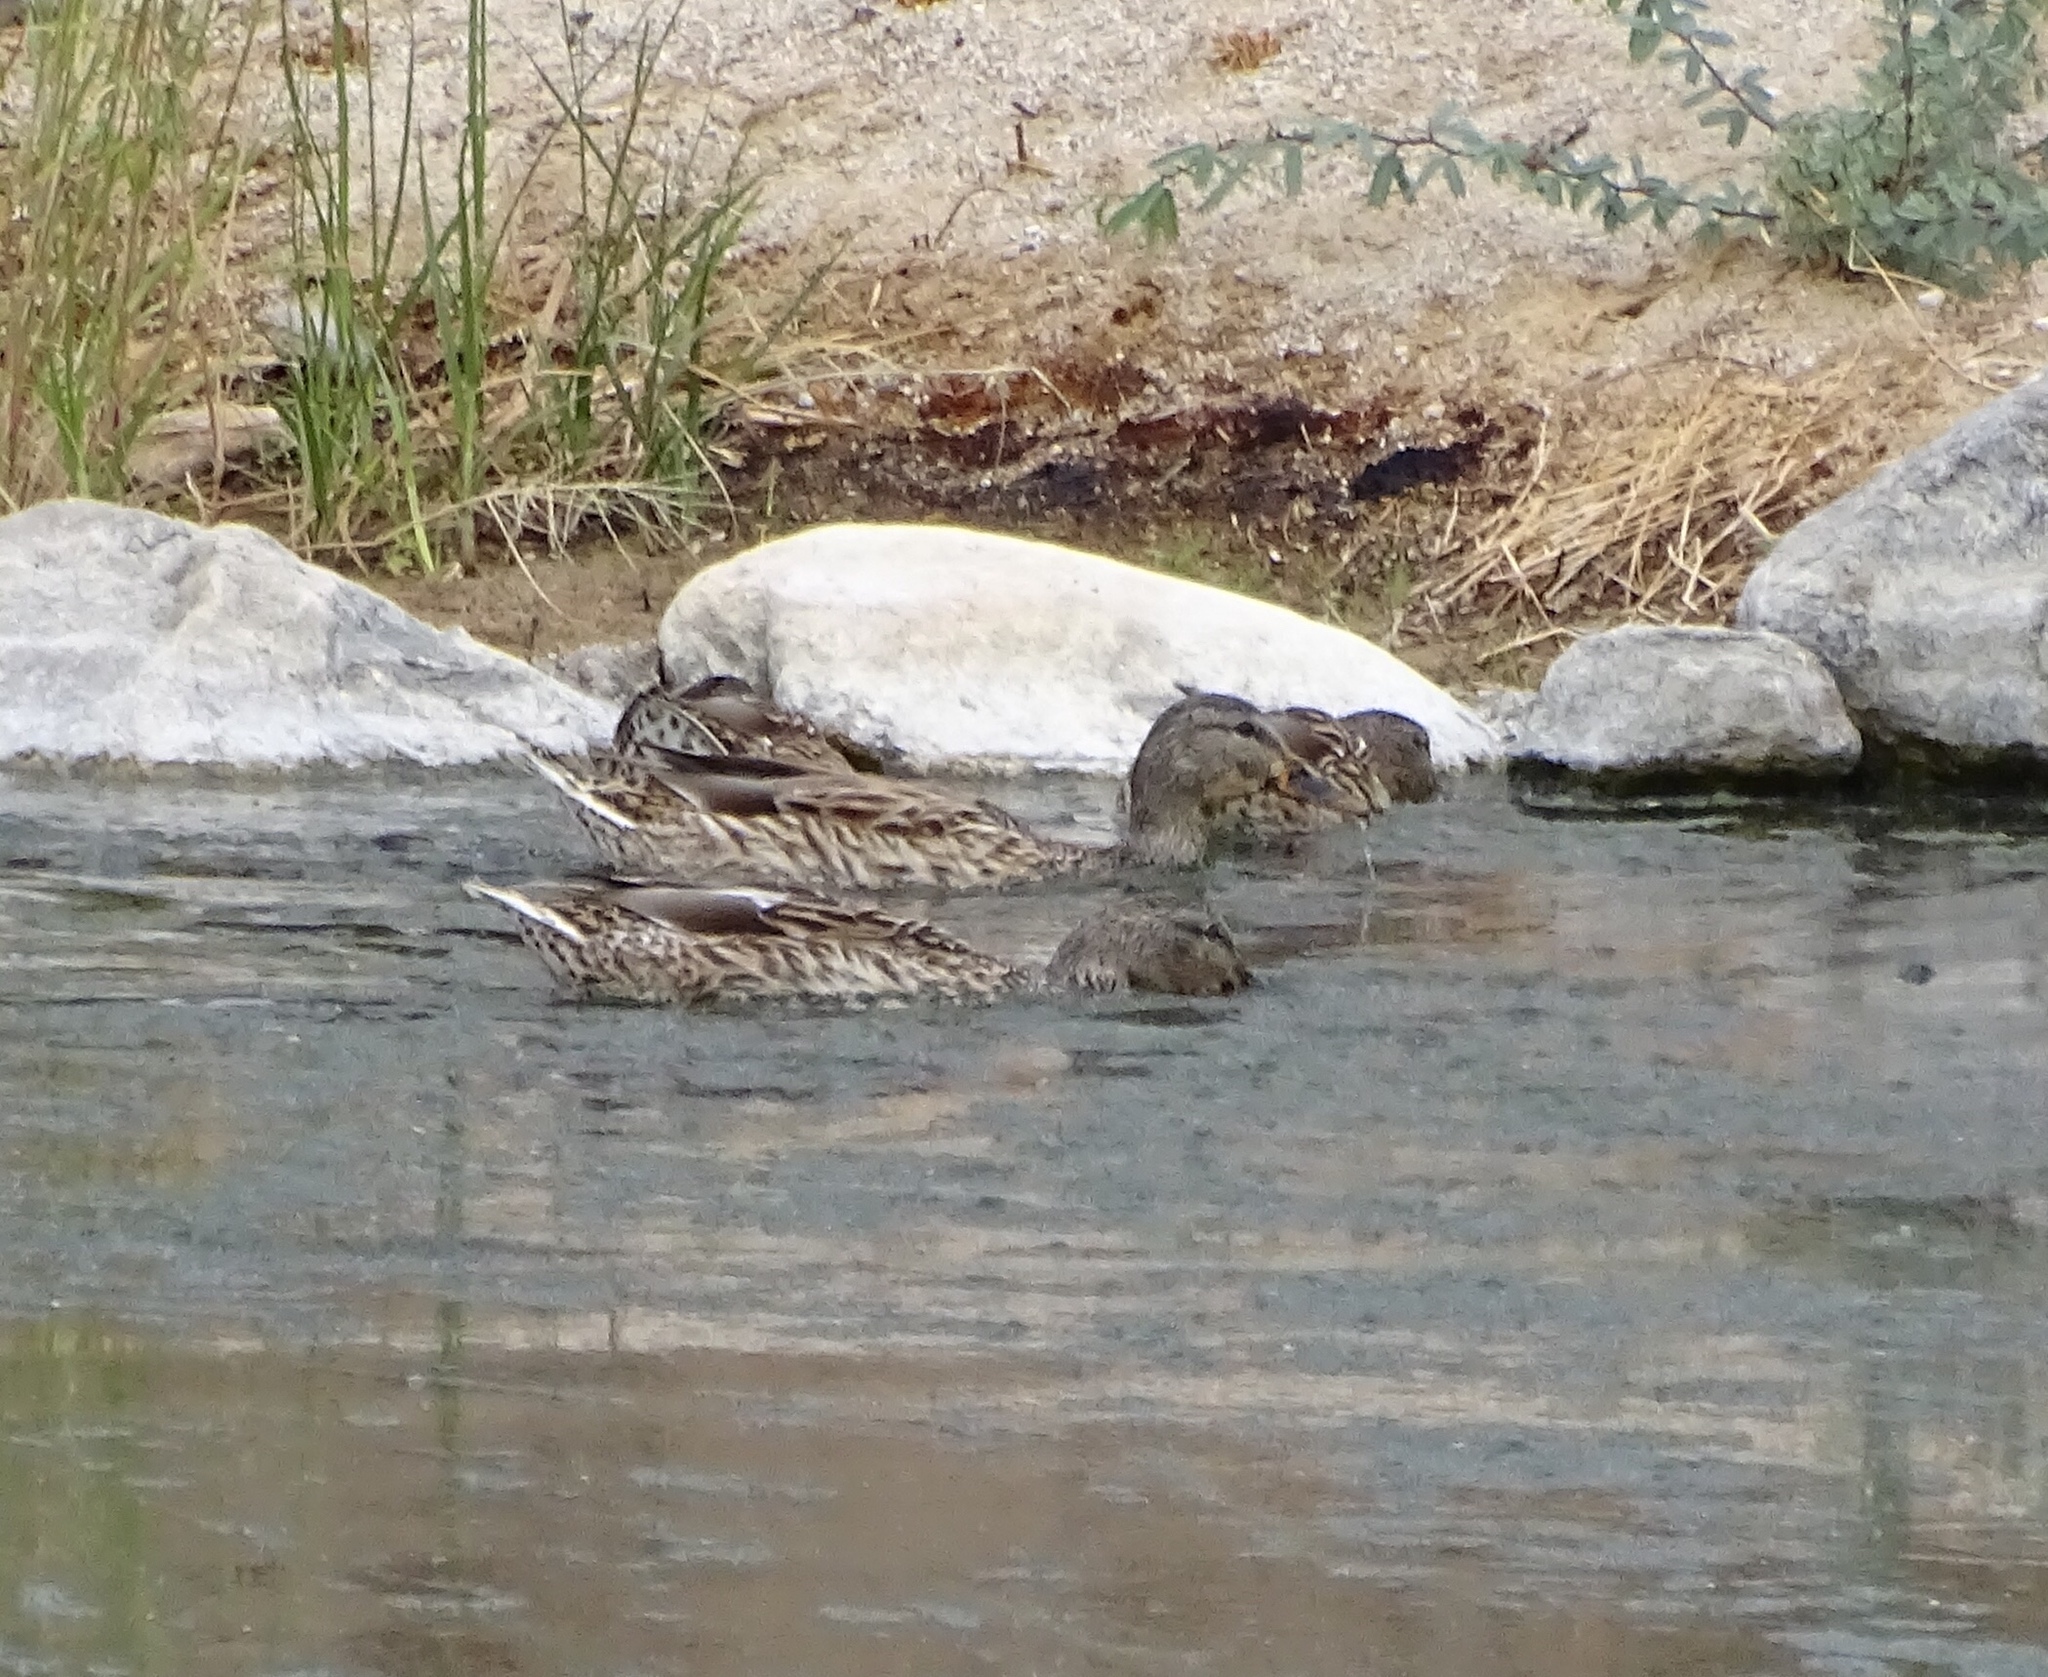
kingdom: Animalia
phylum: Chordata
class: Aves
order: Anseriformes
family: Anatidae
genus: Anas
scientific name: Anas platyrhynchos
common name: Mallard
